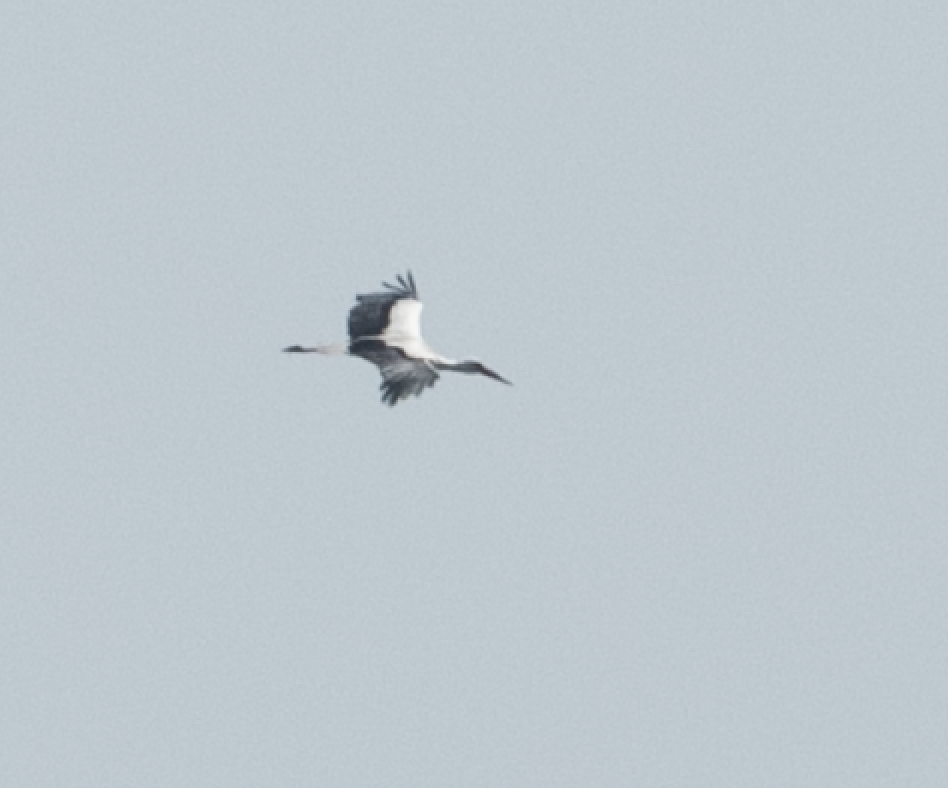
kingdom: Animalia
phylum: Chordata
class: Aves
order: Ciconiiformes
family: Ciconiidae
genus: Ciconia
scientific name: Ciconia ciconia
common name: White stork
